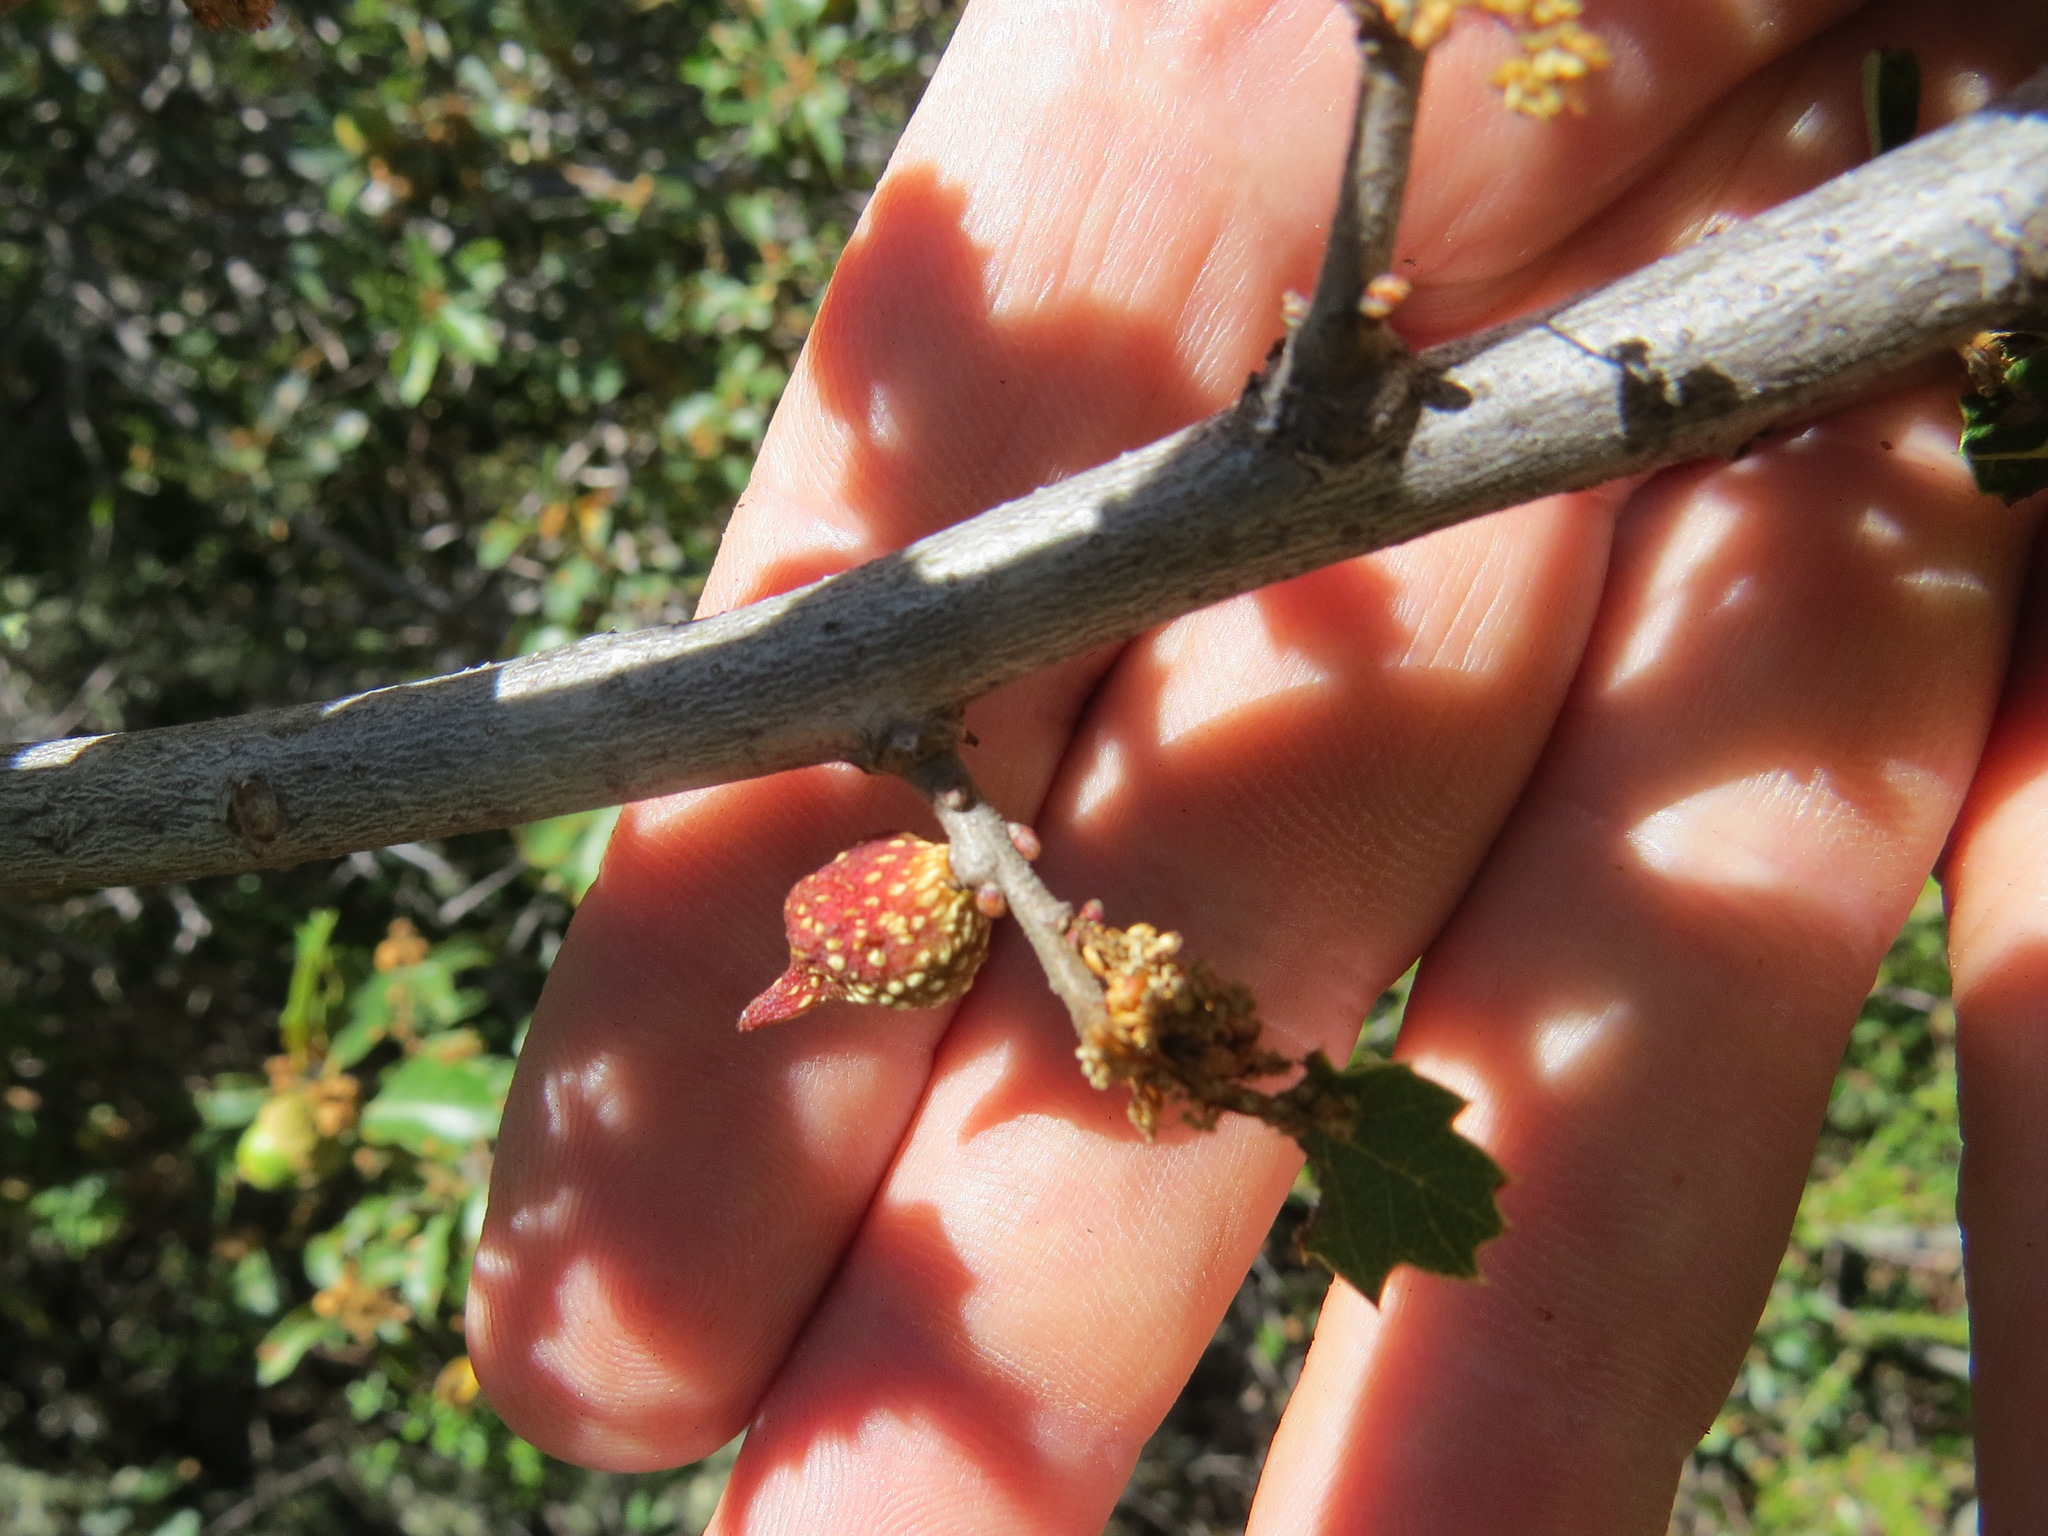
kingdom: Animalia
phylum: Arthropoda
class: Insecta
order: Hymenoptera
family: Cynipidae
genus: Burnettweldia
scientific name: Burnettweldia
